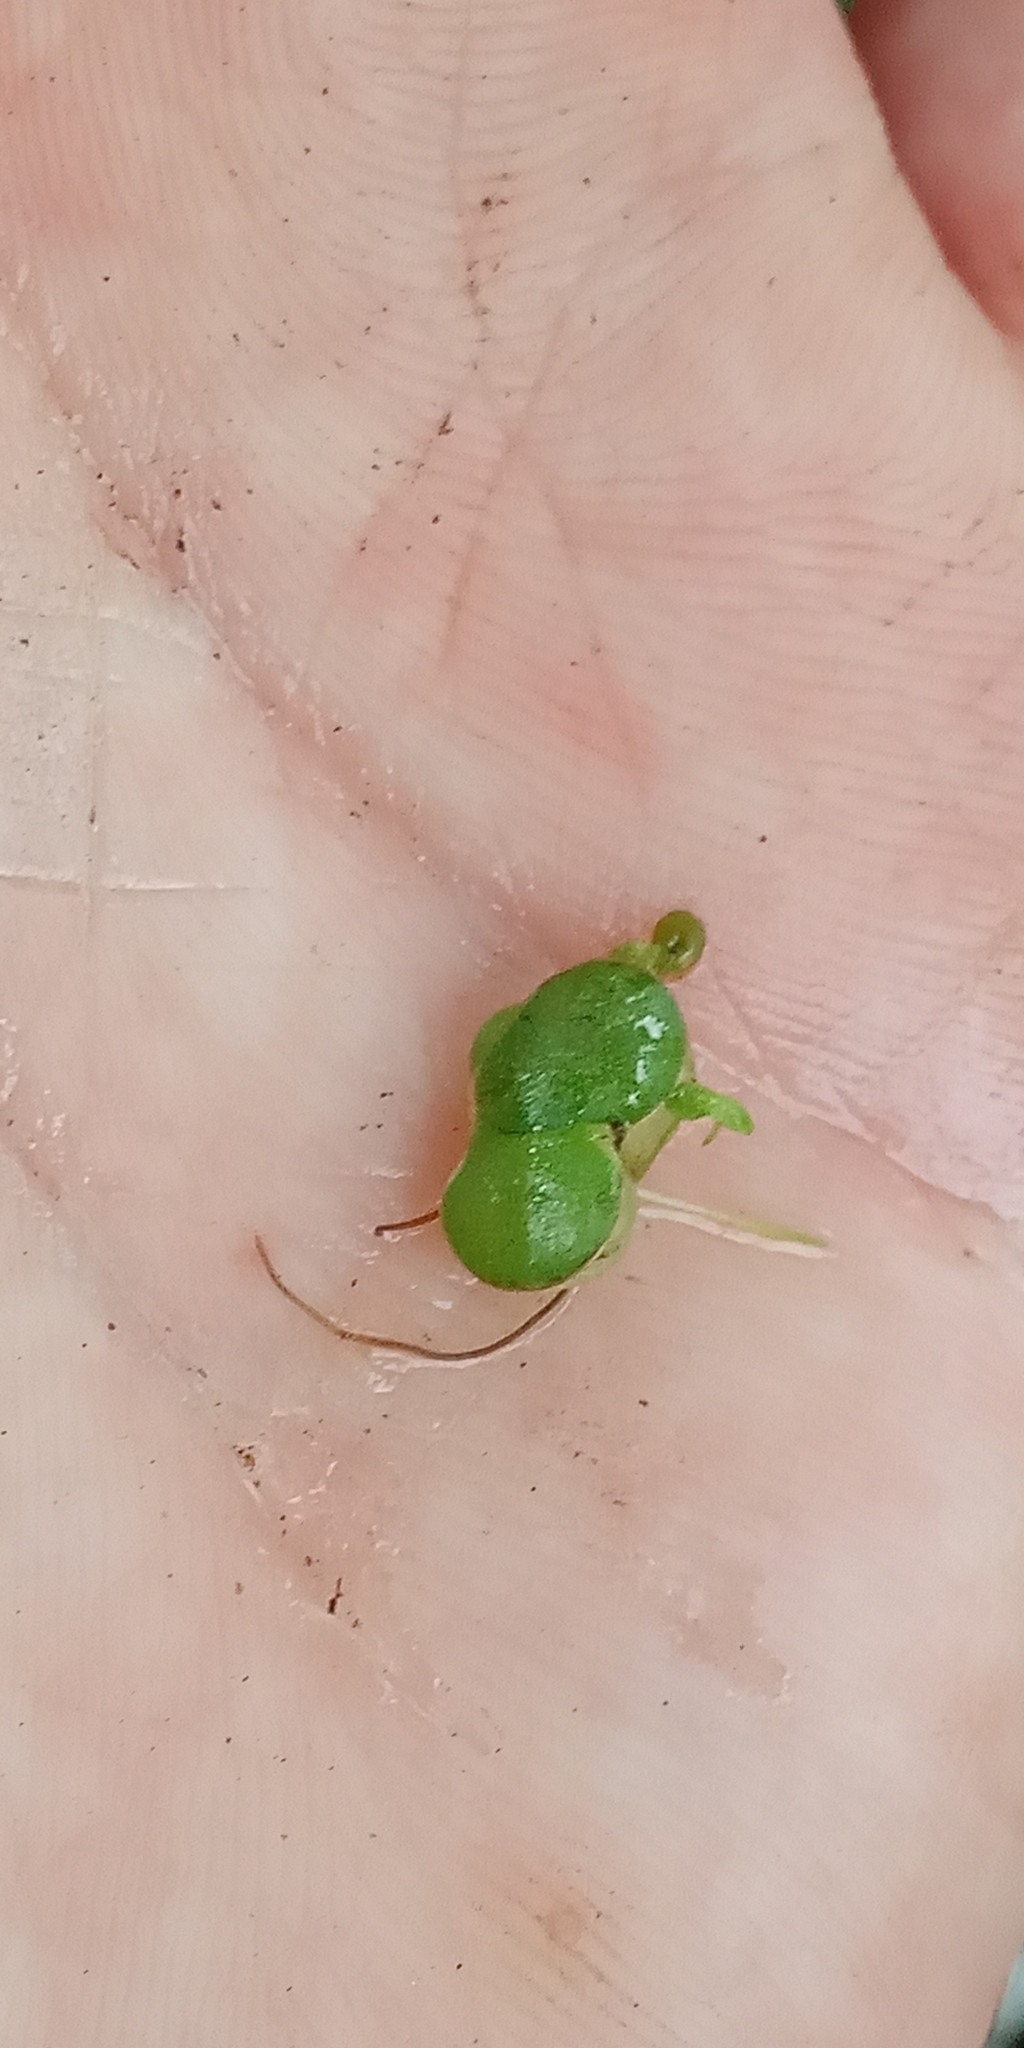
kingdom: Plantae
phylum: Tracheophyta
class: Liliopsida
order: Alismatales
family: Araceae
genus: Lemna
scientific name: Lemna gibba
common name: Fat duckweed
